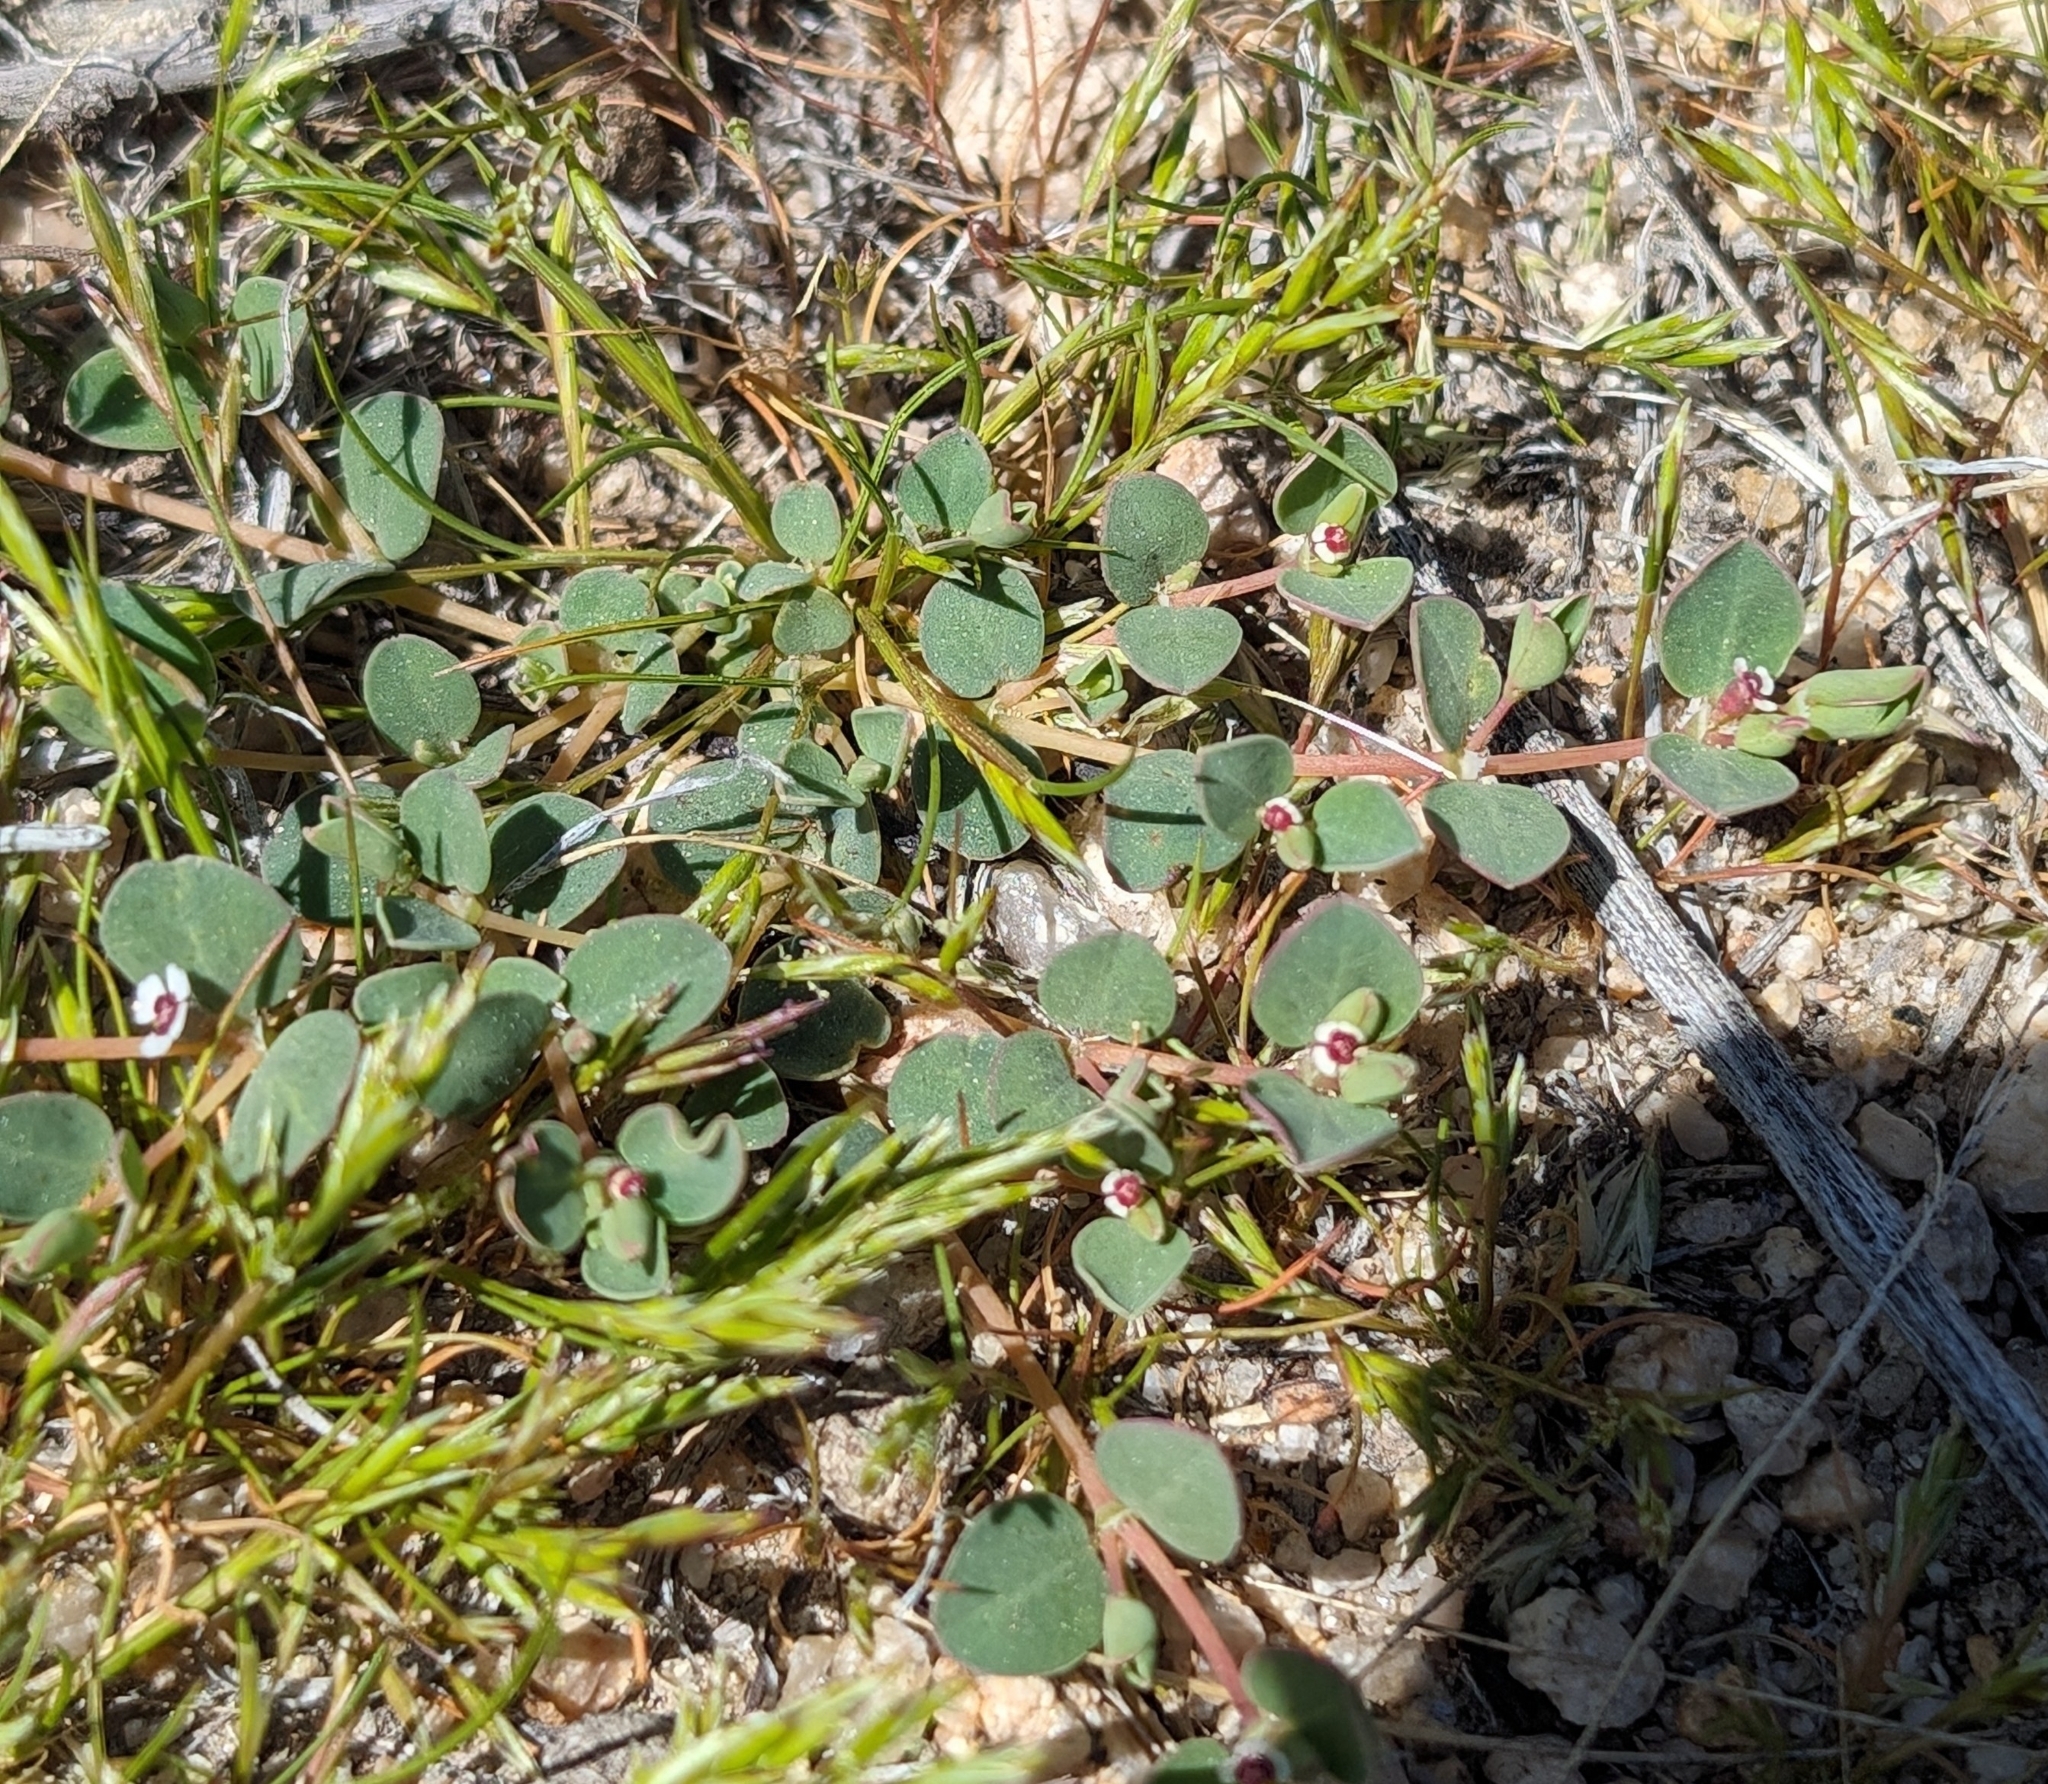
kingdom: Plantae
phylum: Tracheophyta
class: Magnoliopsida
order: Malpighiales
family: Euphorbiaceae
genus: Euphorbia
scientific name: Euphorbia albomarginata
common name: Whitemargin sandmat
